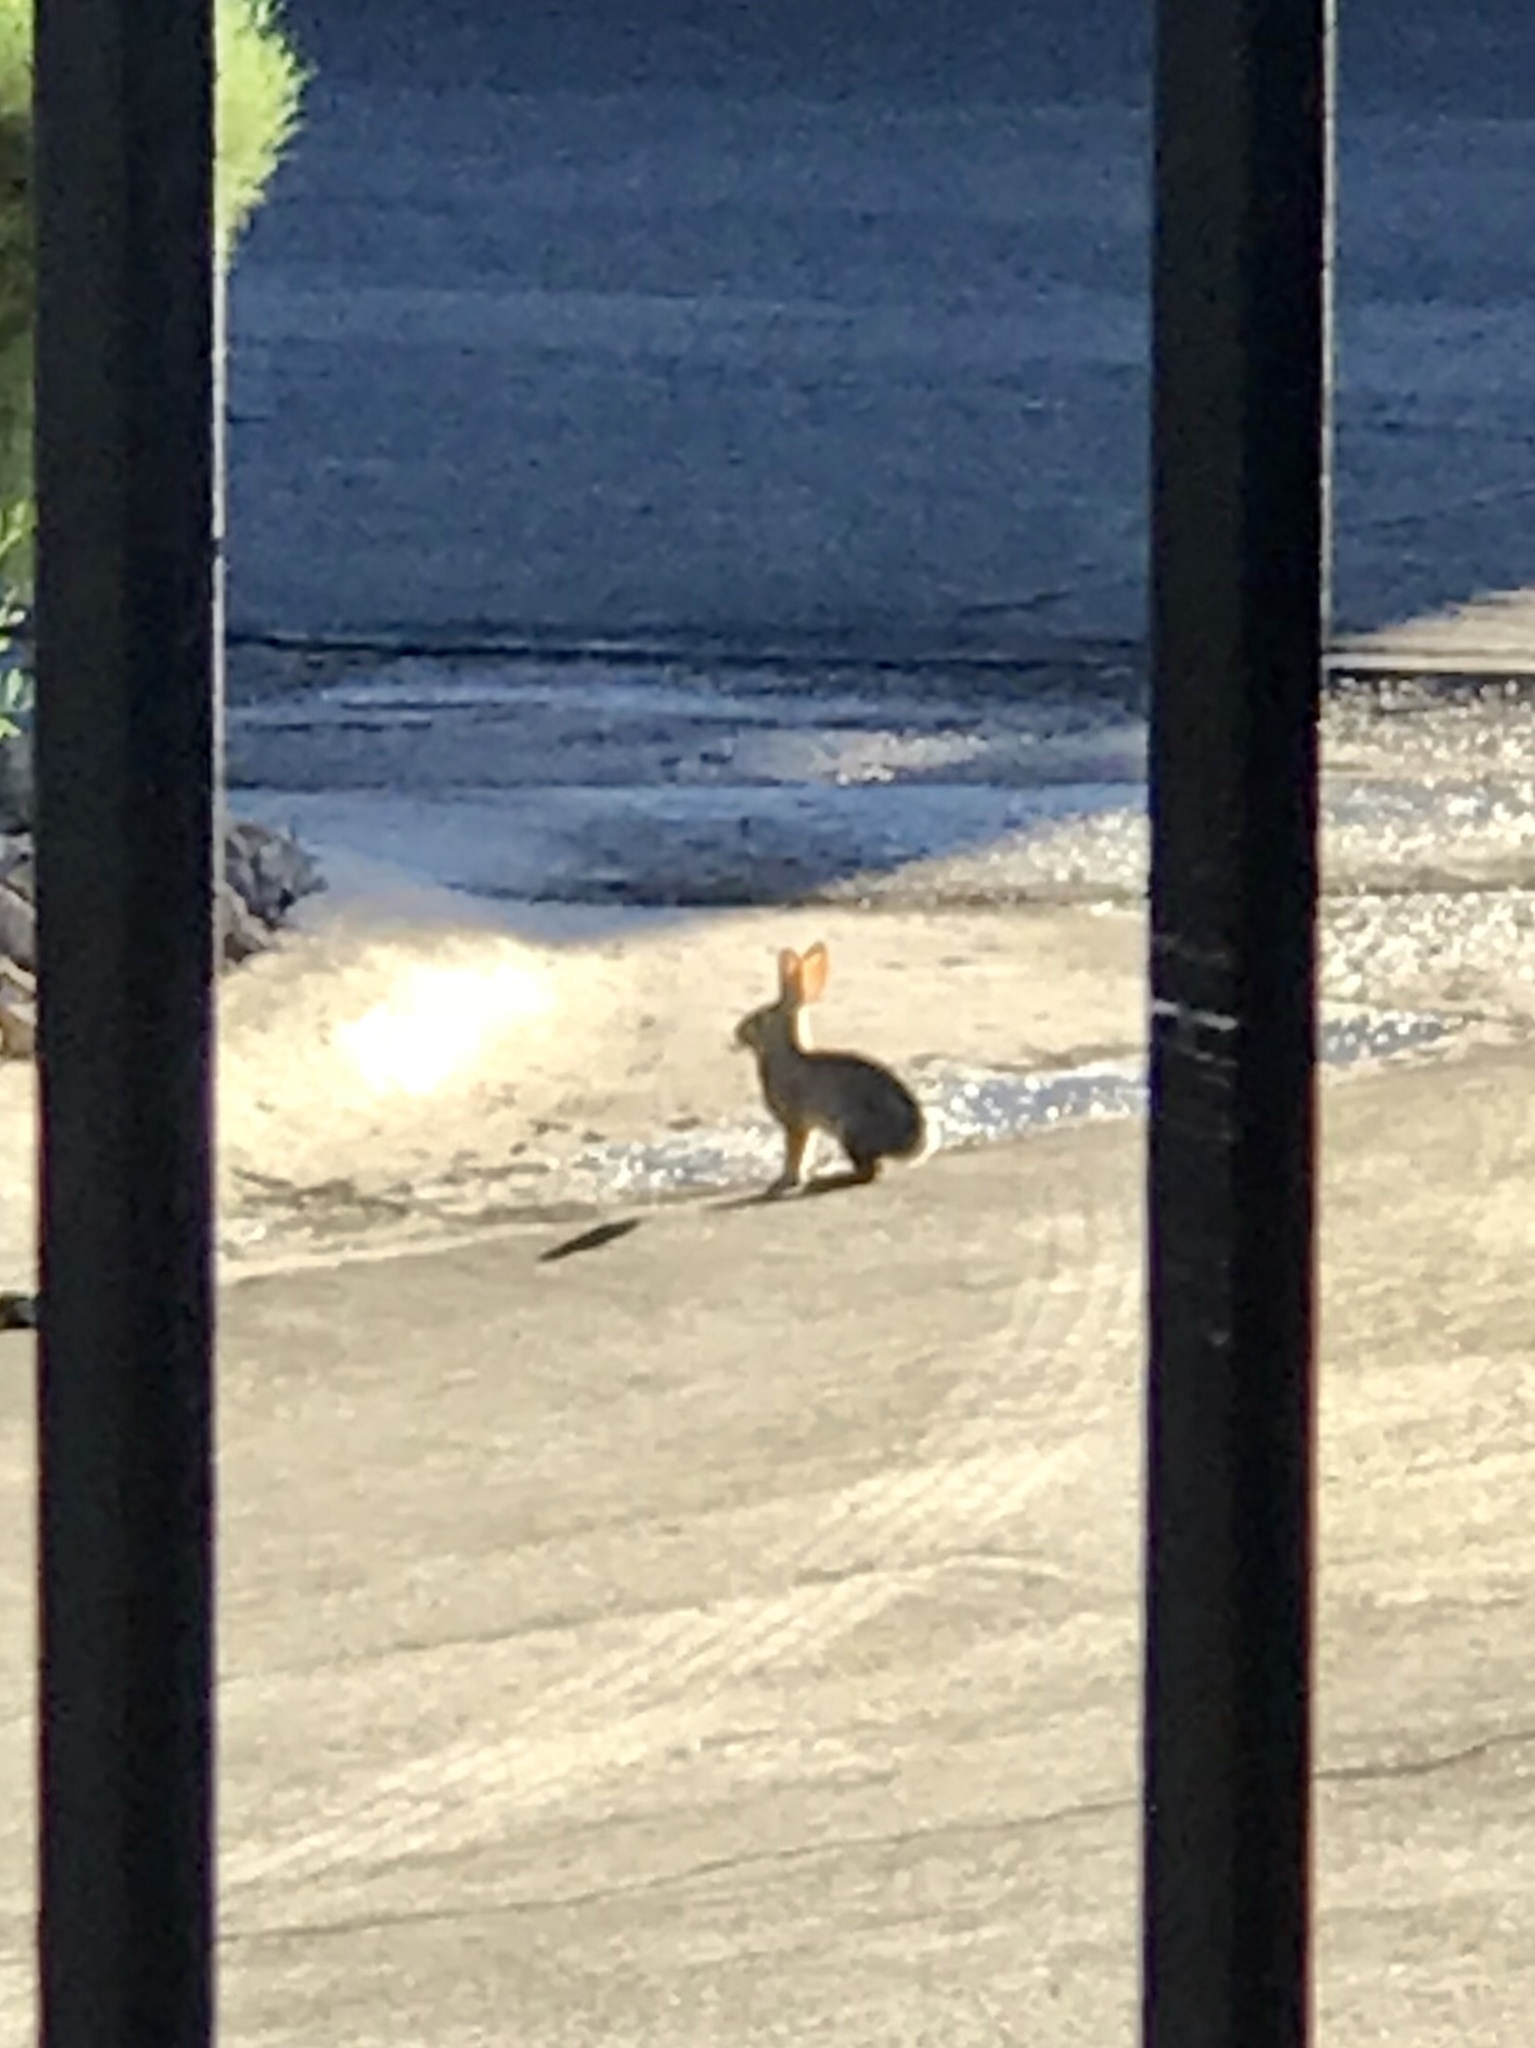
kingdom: Animalia
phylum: Chordata
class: Mammalia
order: Lagomorpha
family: Leporidae
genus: Sylvilagus
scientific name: Sylvilagus audubonii
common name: Desert cottontail
